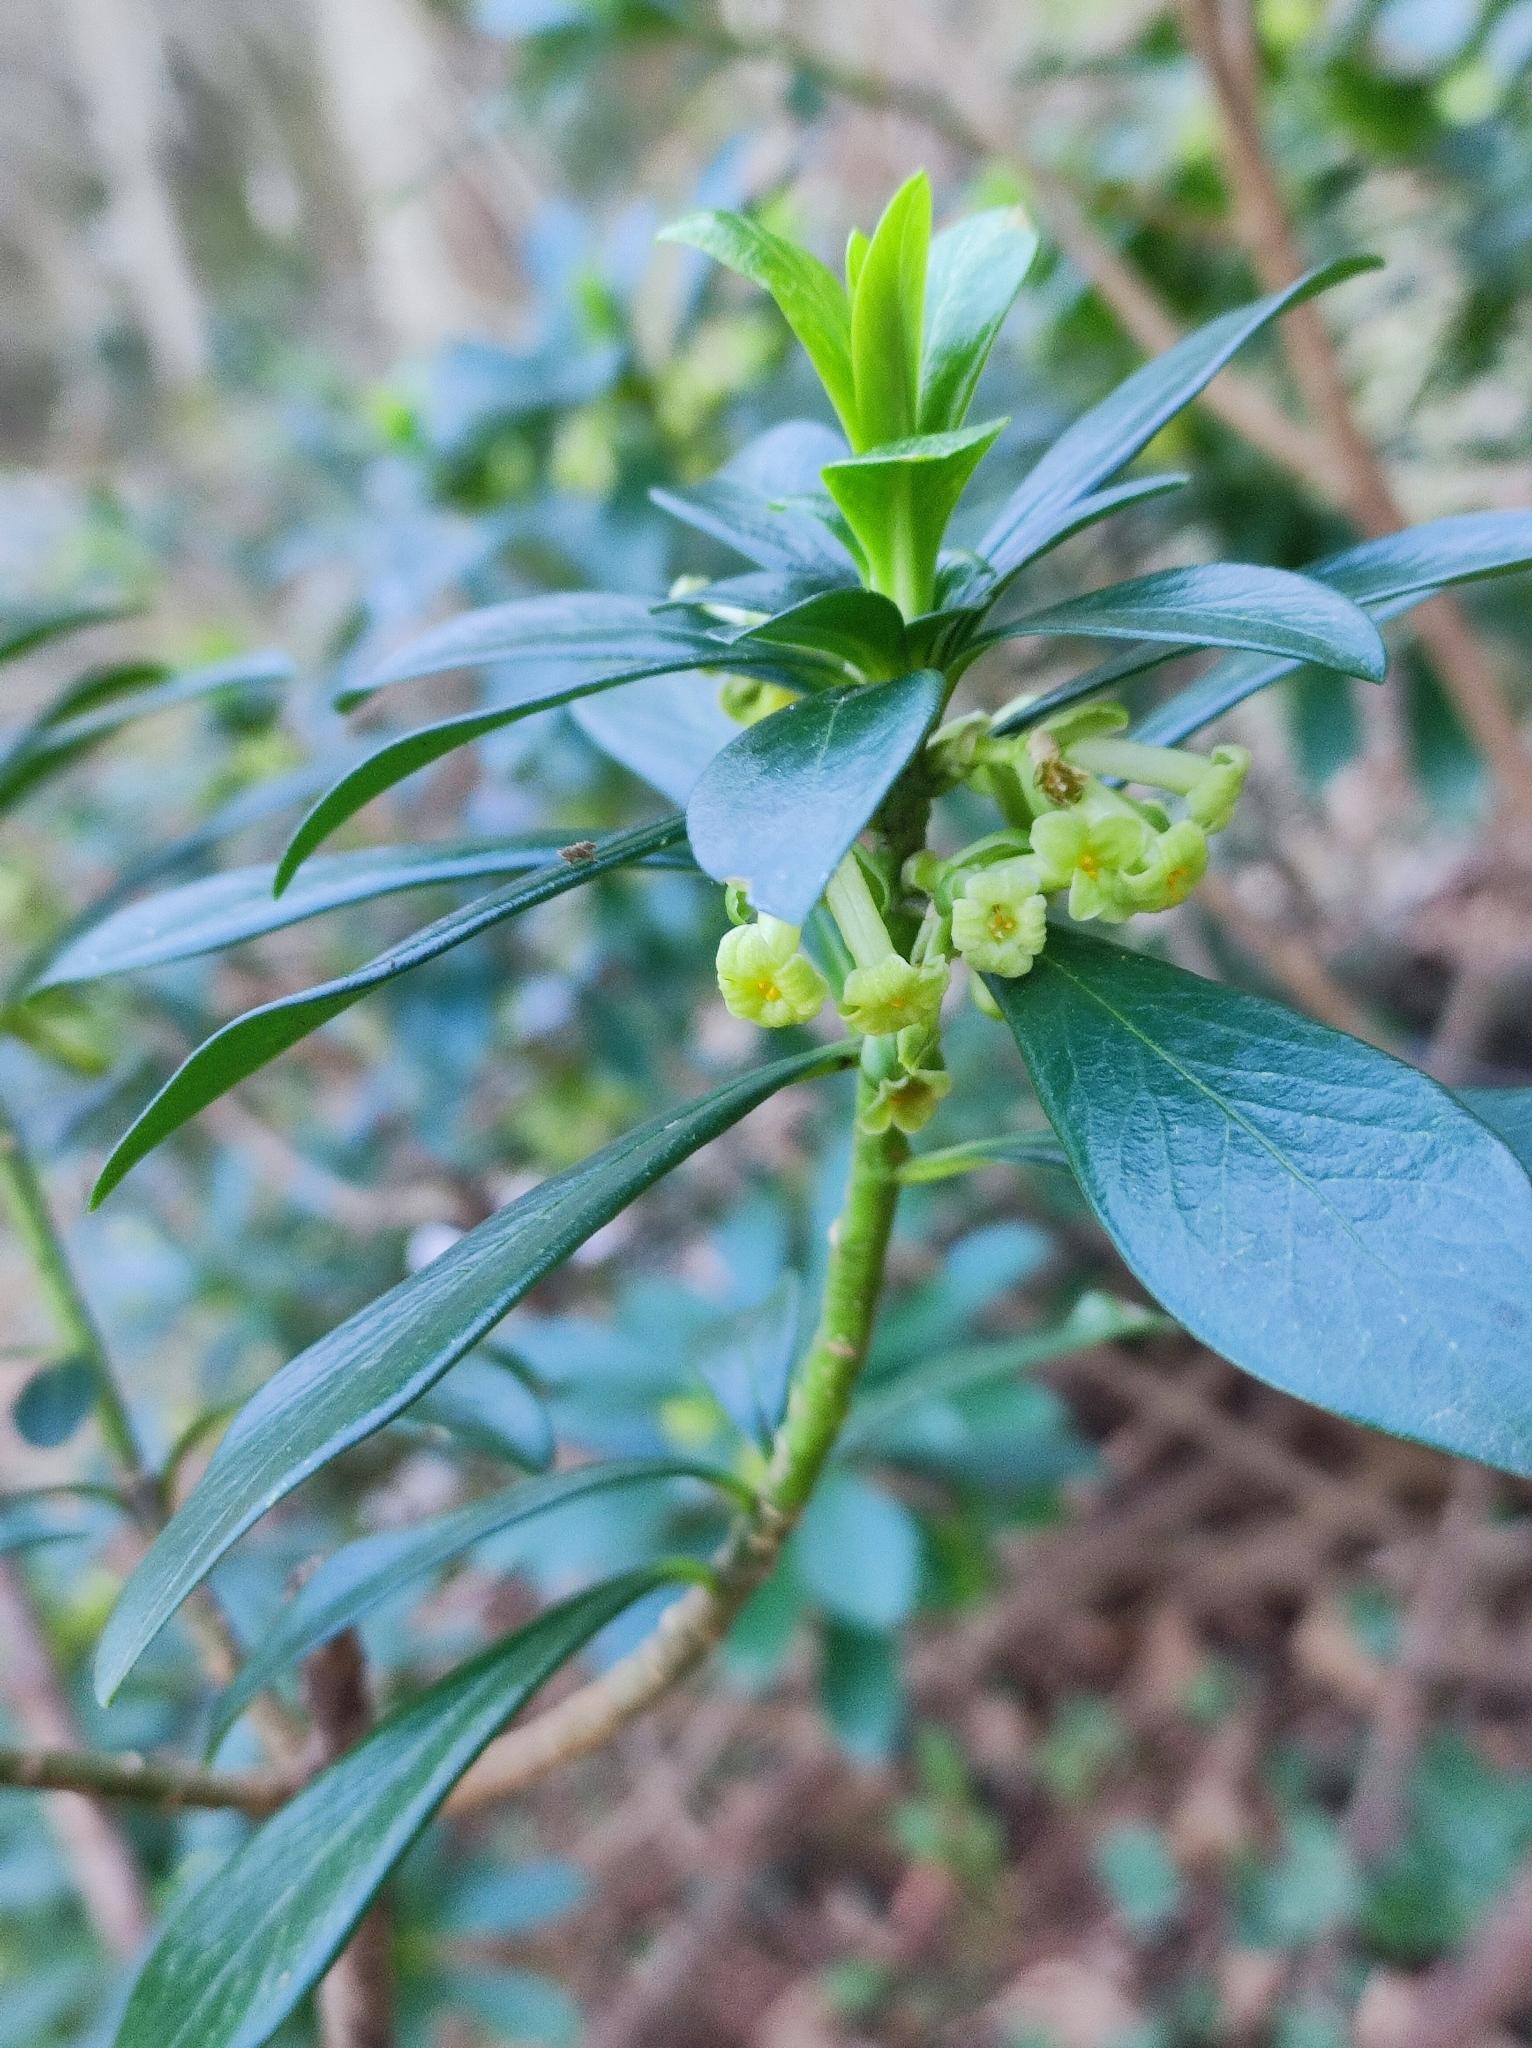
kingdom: Plantae
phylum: Tracheophyta
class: Magnoliopsida
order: Malvales
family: Thymelaeaceae
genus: Daphne
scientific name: Daphne laureola
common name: Spurge-laurel
